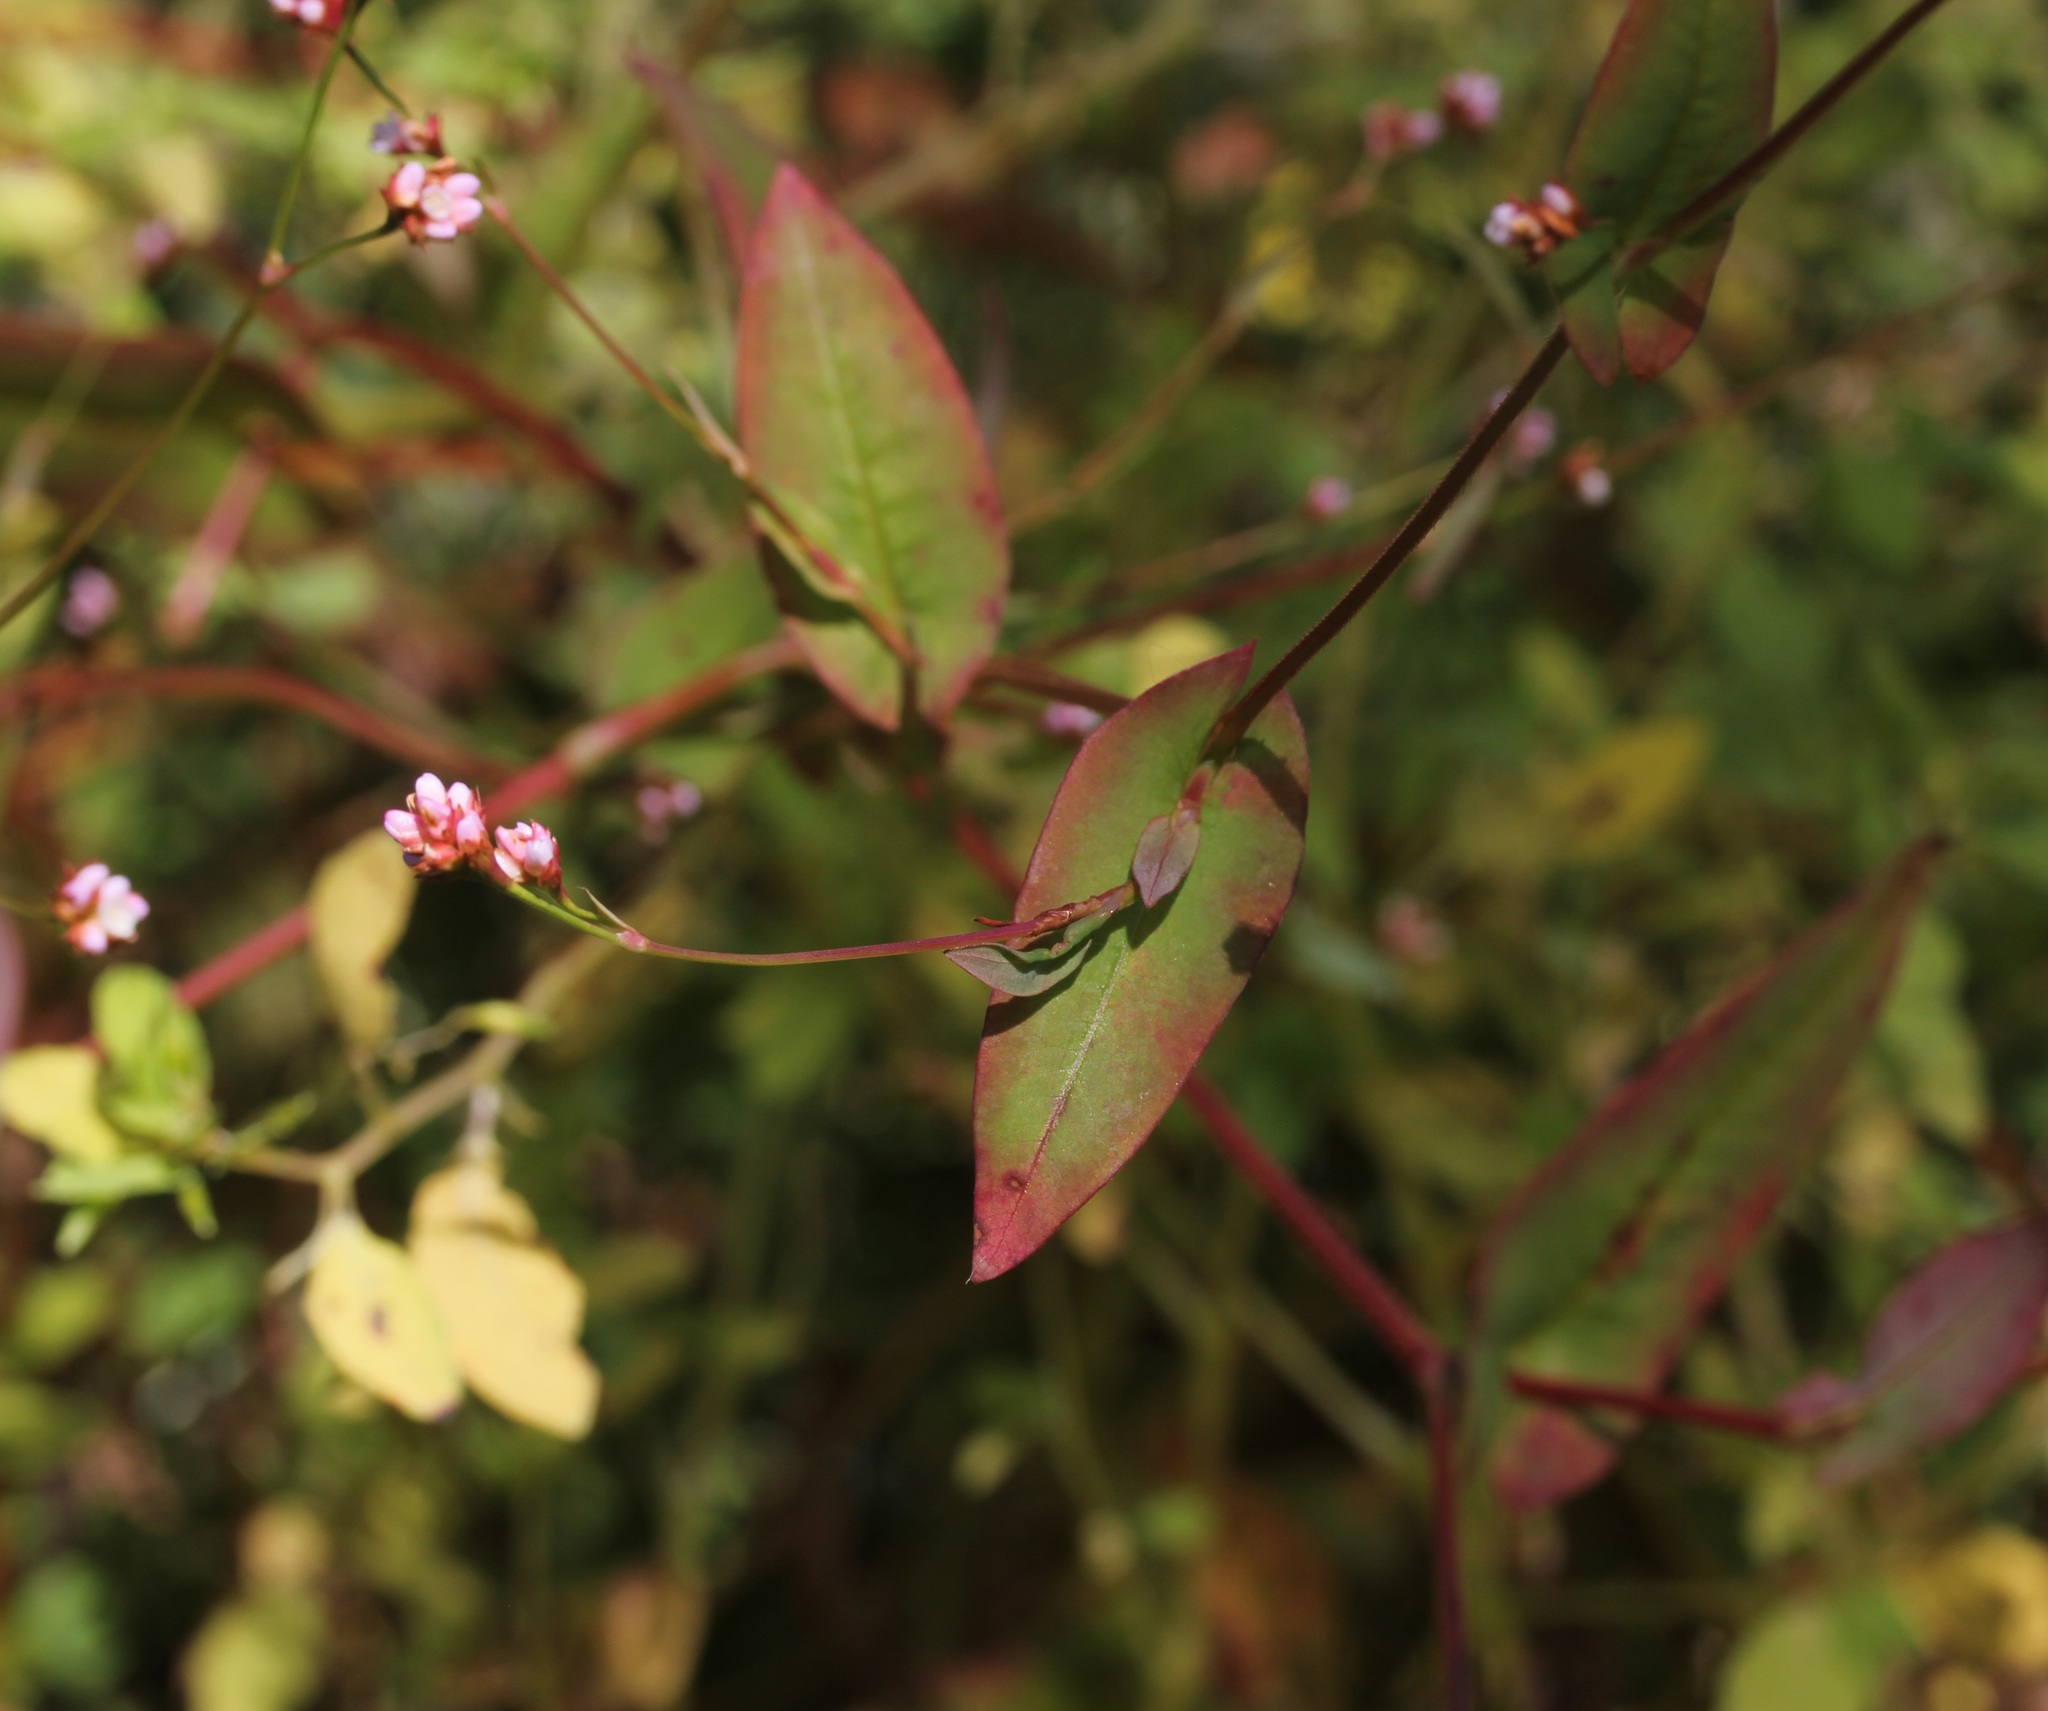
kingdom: Plantae
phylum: Tracheophyta
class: Magnoliopsida
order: Caryophyllales
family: Polygonaceae
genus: Persicaria
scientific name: Persicaria sagittata
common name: American tearthumb
